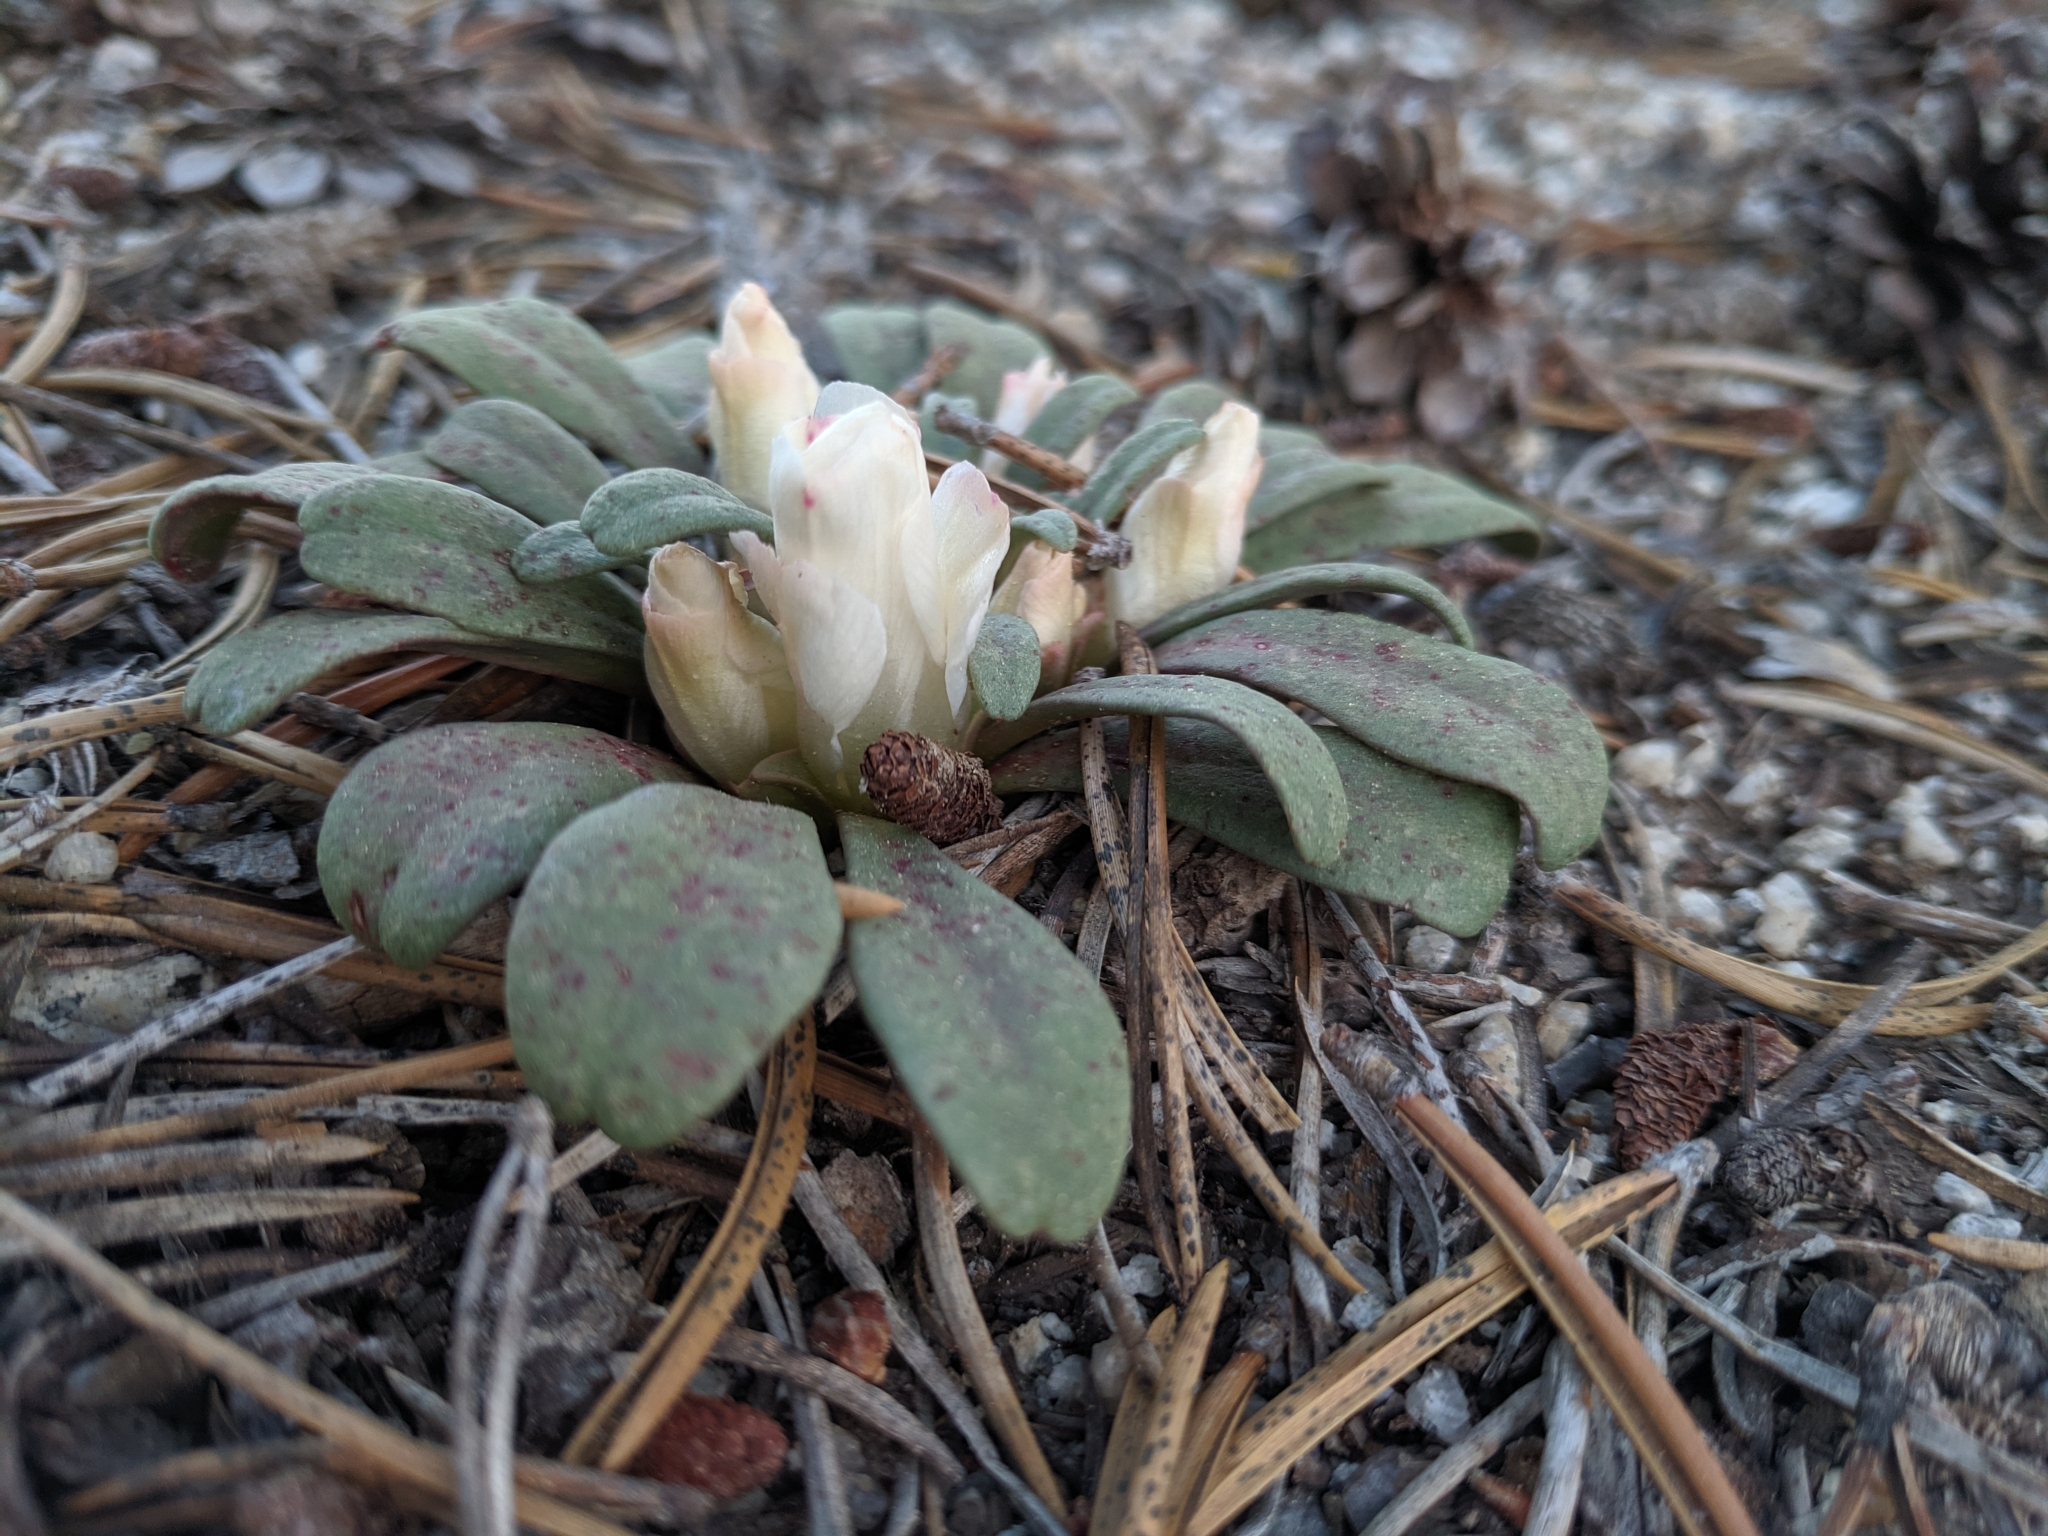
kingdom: Plantae
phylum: Tracheophyta
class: Magnoliopsida
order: Caryophyllales
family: Montiaceae
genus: Lewisia
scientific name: Lewisia kelloggii
